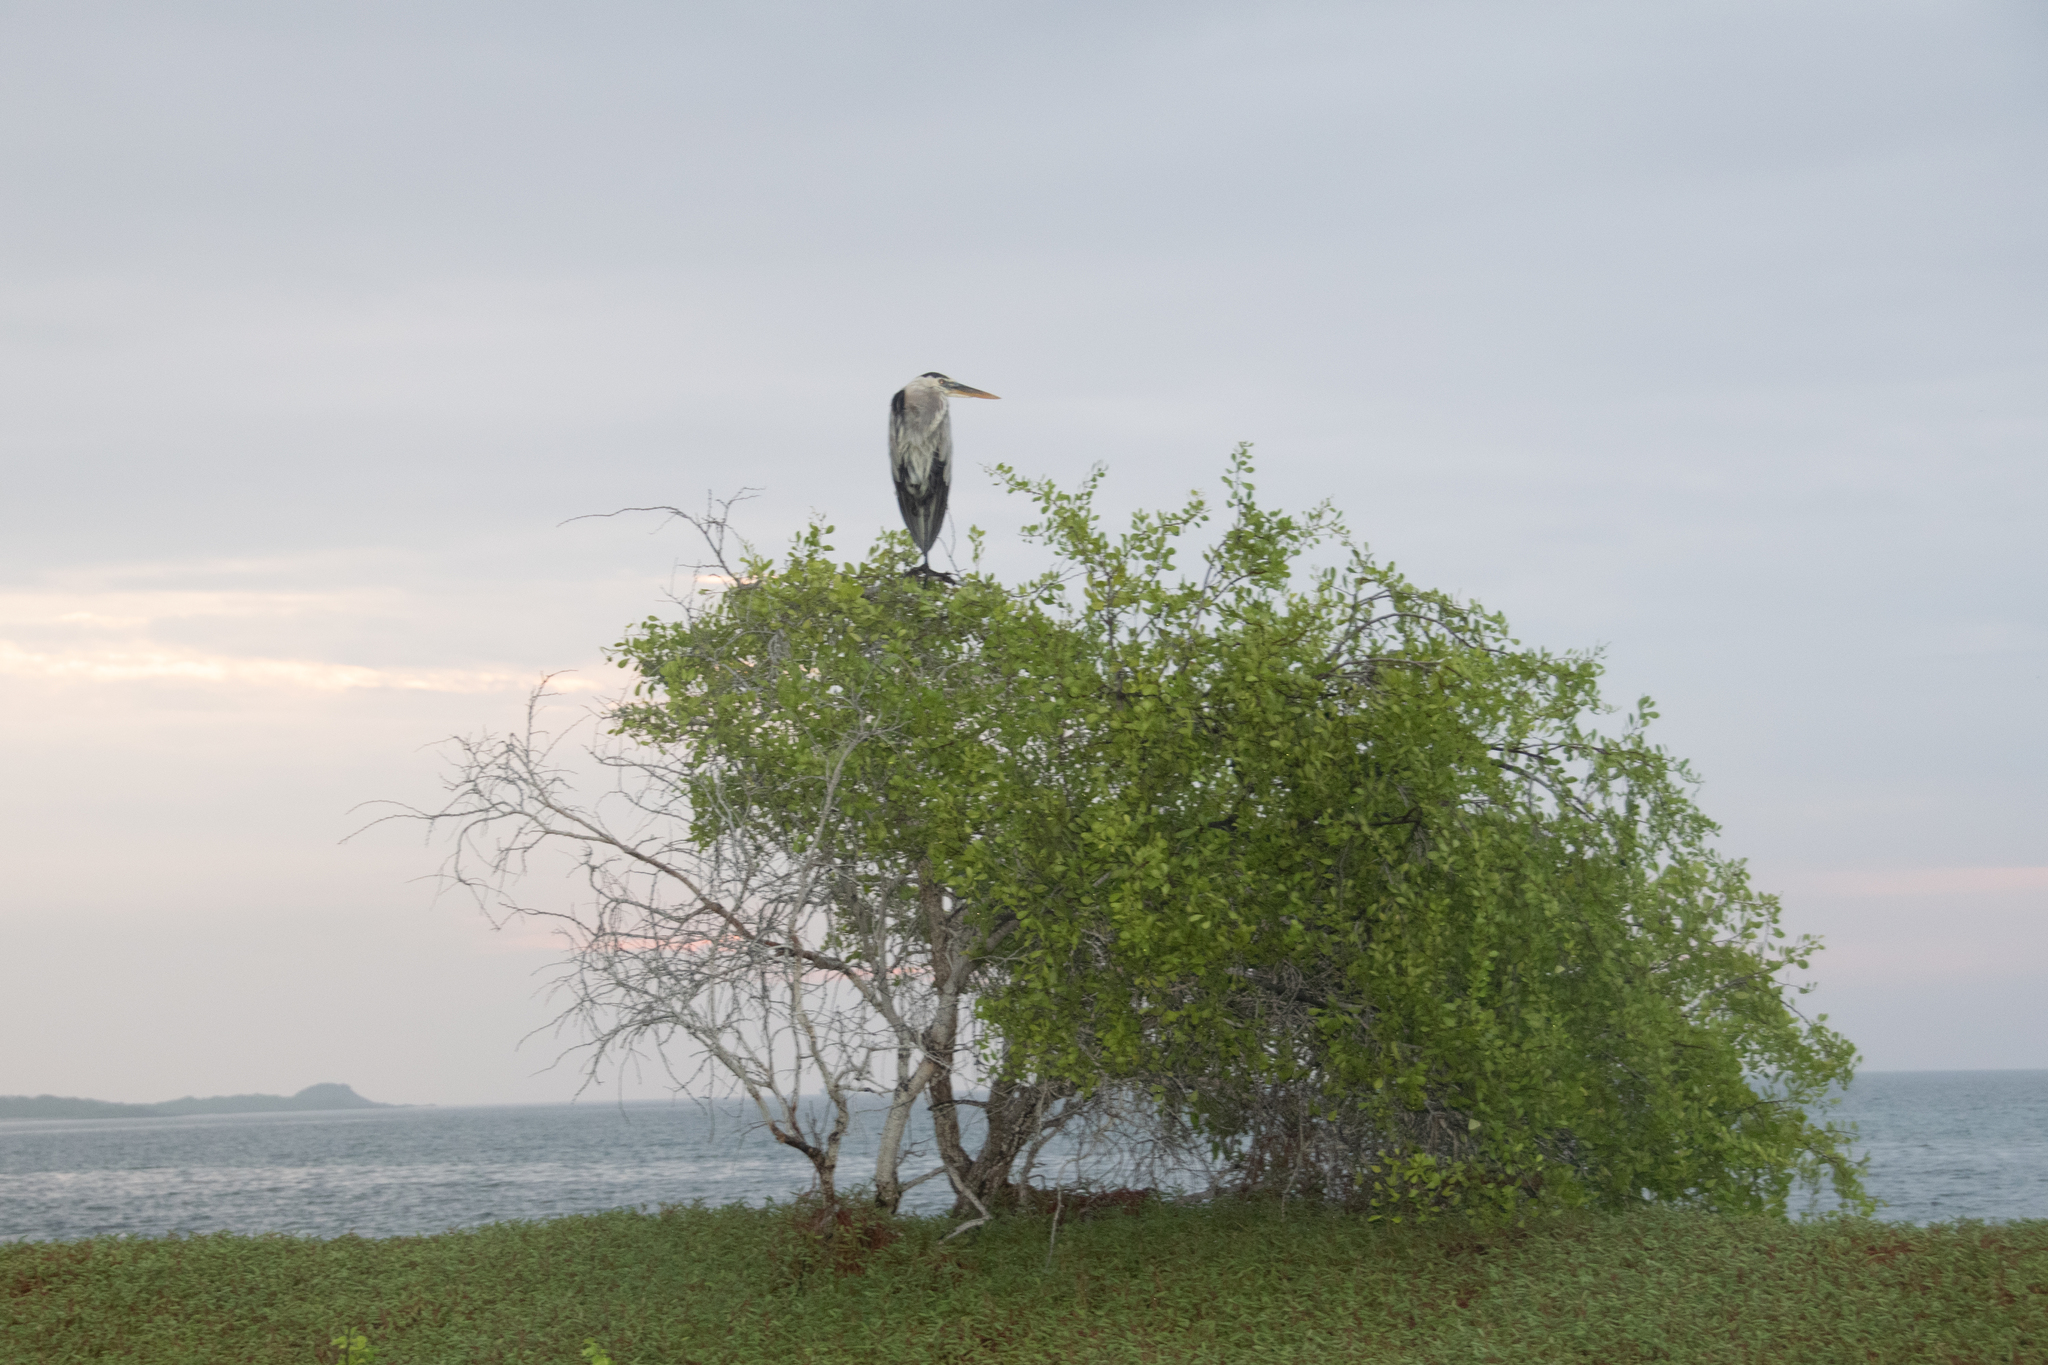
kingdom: Animalia
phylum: Chordata
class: Aves
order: Pelecaniformes
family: Ardeidae
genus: Ardea
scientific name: Ardea herodias
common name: Great blue heron
